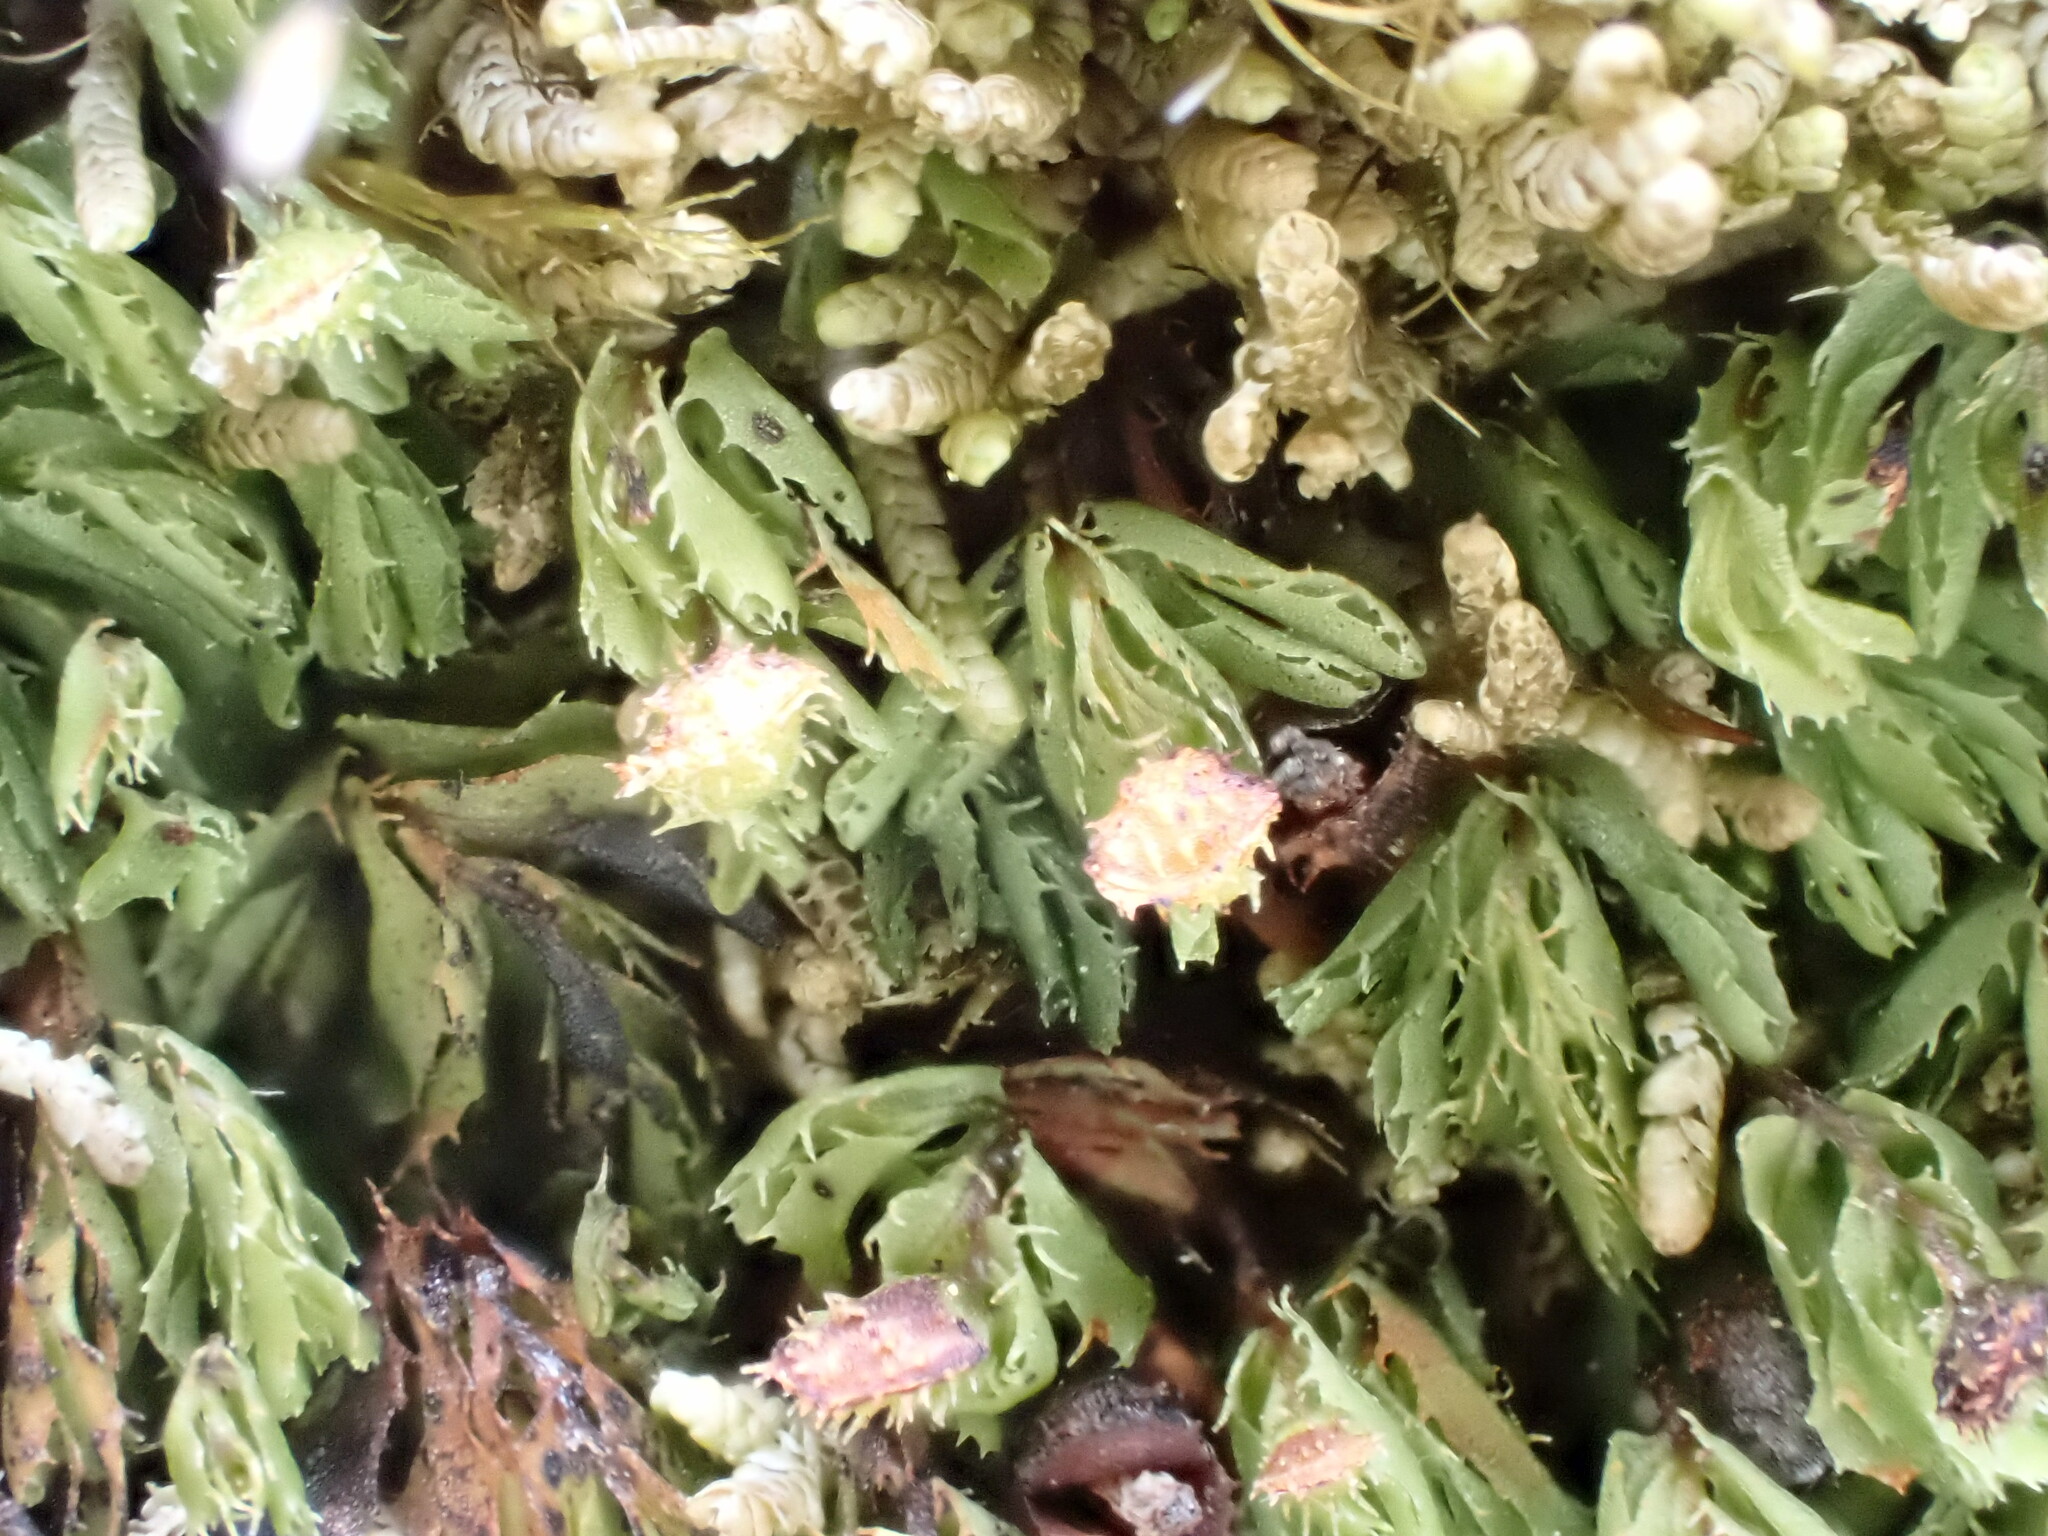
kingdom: Plantae
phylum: Tracheophyta
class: Polypodiopsida
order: Hymenophyllales
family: Hymenophyllaceae
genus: Hymenophyllum
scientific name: Hymenophyllum minimum
